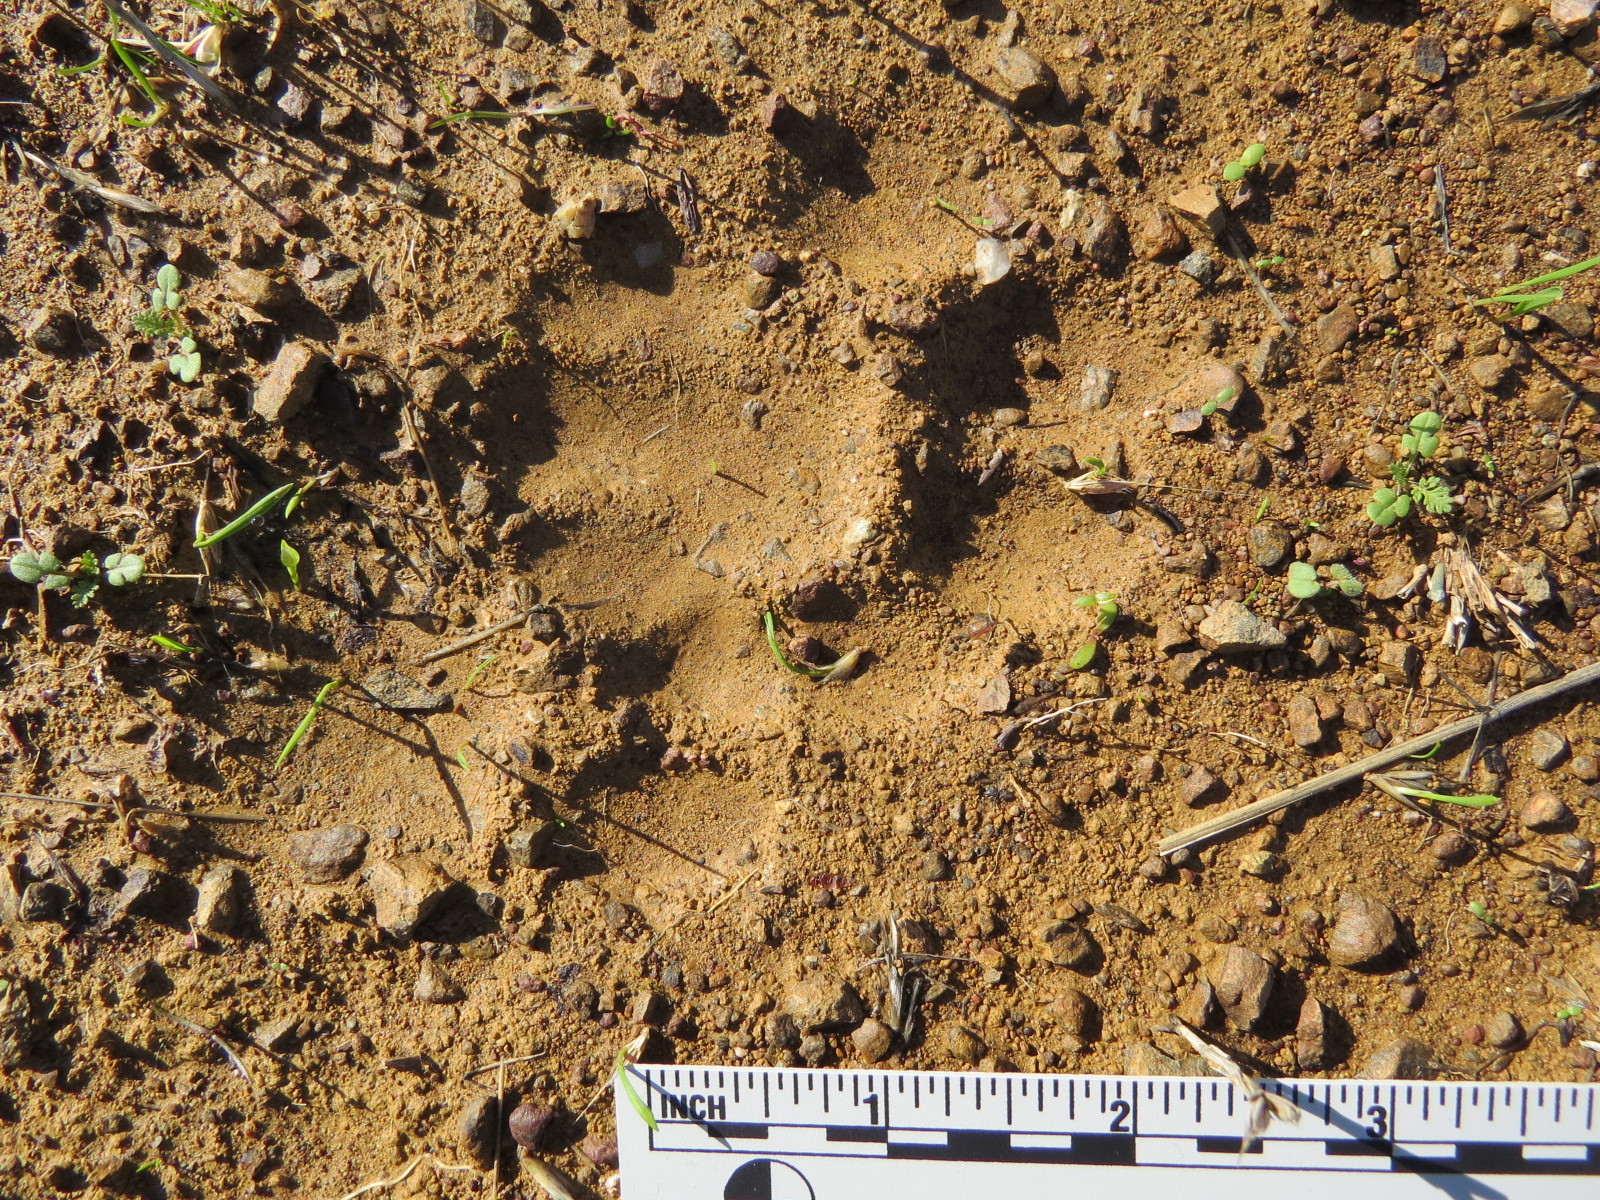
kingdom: Animalia
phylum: Chordata
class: Mammalia
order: Carnivora
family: Felidae
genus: Puma
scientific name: Puma concolor
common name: Puma
